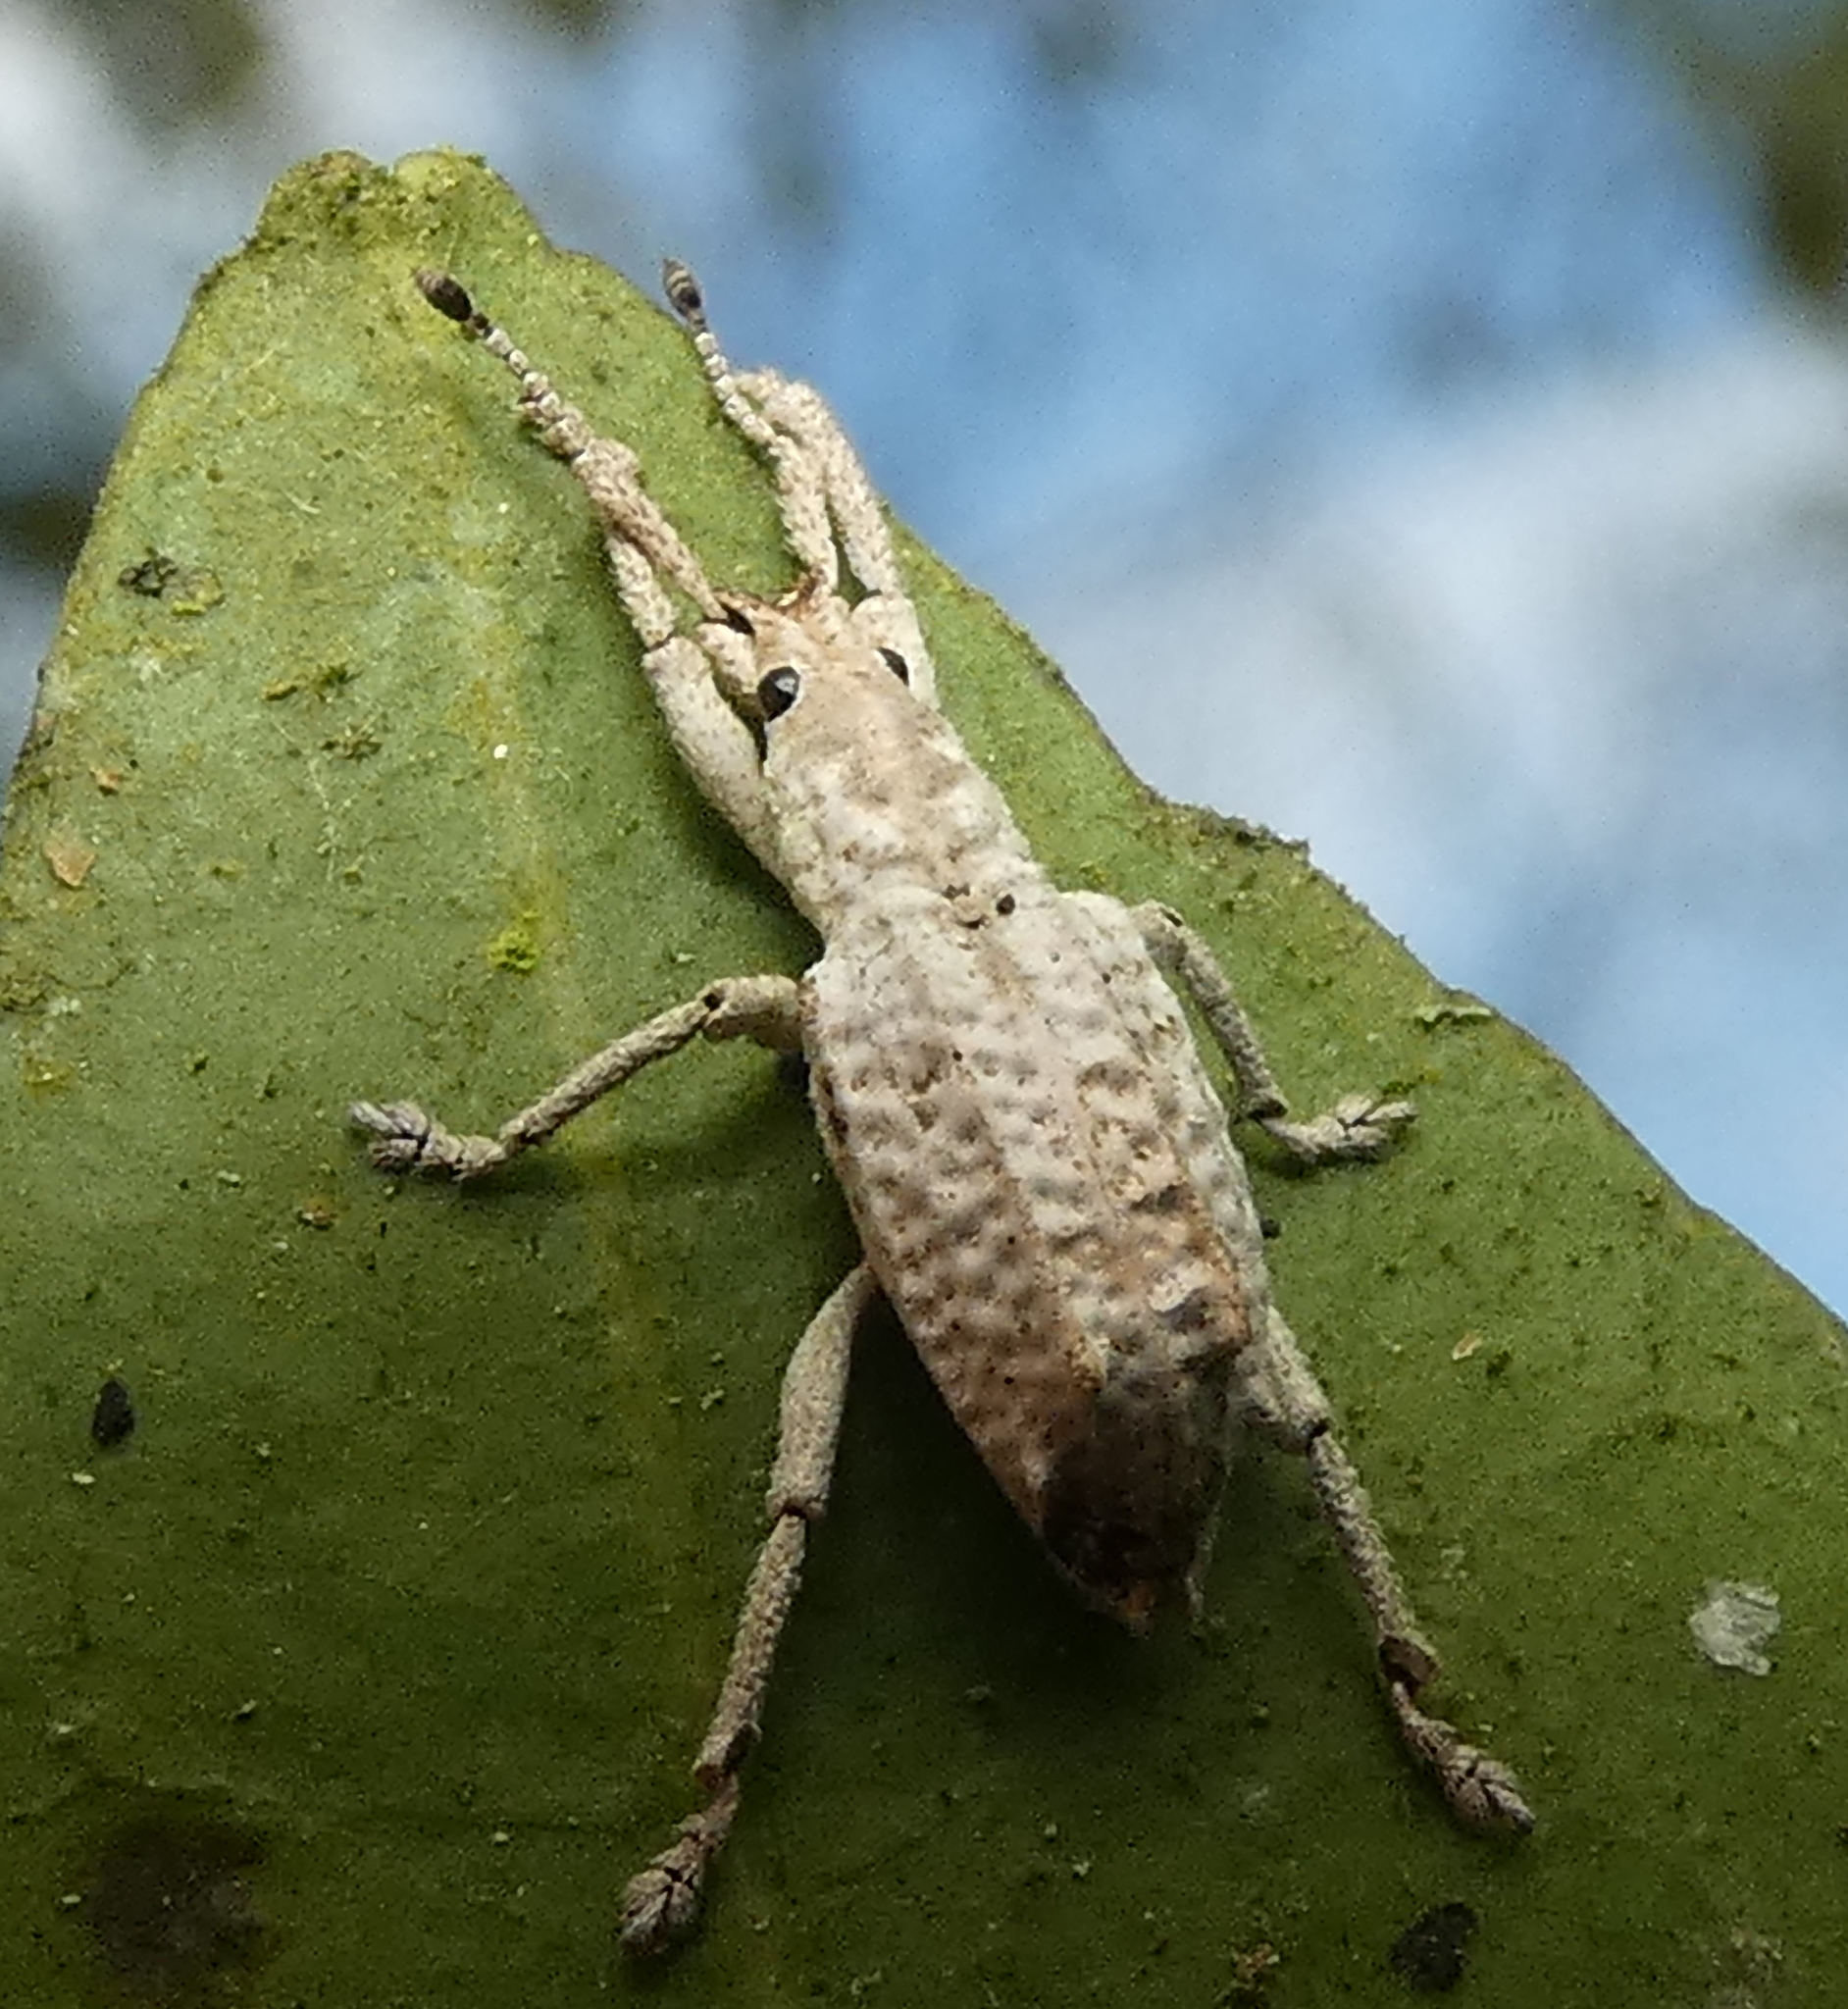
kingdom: Animalia
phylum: Arthropoda
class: Insecta
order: Coleoptera
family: Curculionidae
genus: Compsus
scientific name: Compsus niveus
